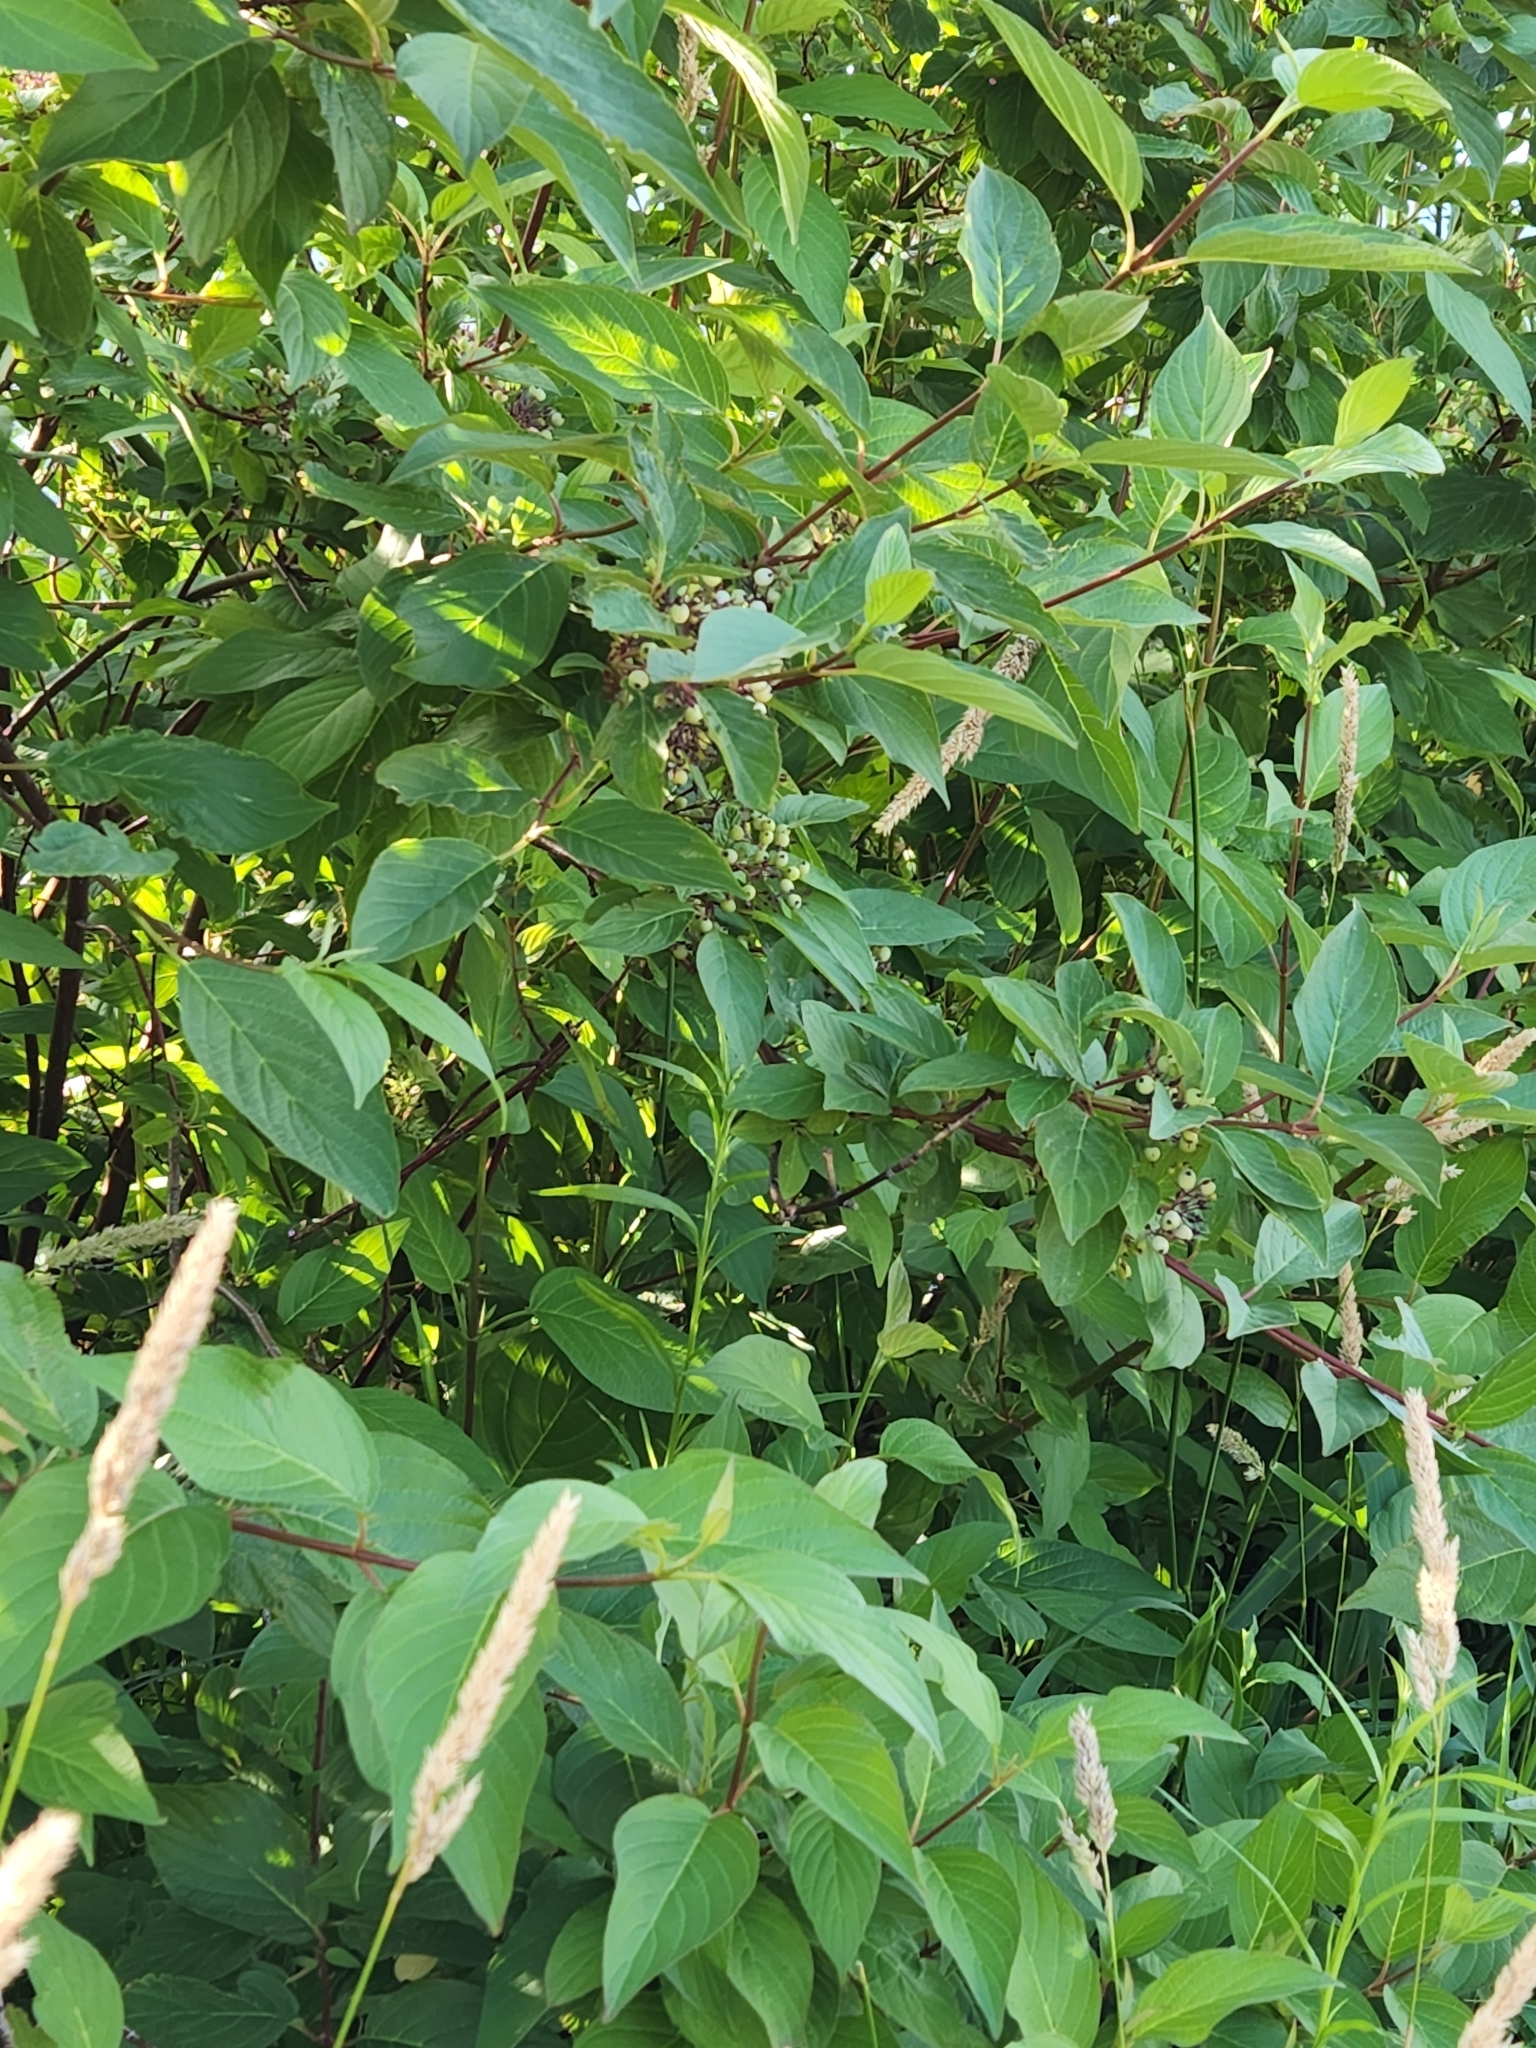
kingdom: Plantae
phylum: Tracheophyta
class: Magnoliopsida
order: Cornales
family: Cornaceae
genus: Cornus
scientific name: Cornus sericea
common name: Red-osier dogwood
